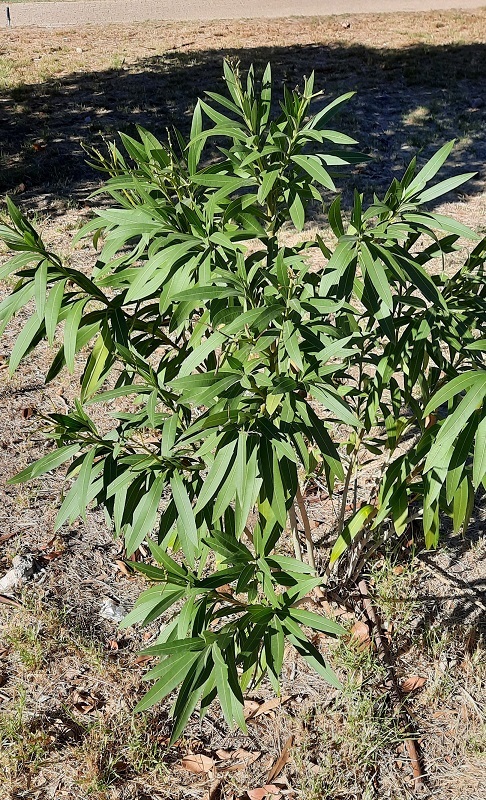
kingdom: Plantae
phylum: Tracheophyta
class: Magnoliopsida
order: Gentianales
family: Apocynaceae
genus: Nerium
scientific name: Nerium oleander
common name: Oleander
